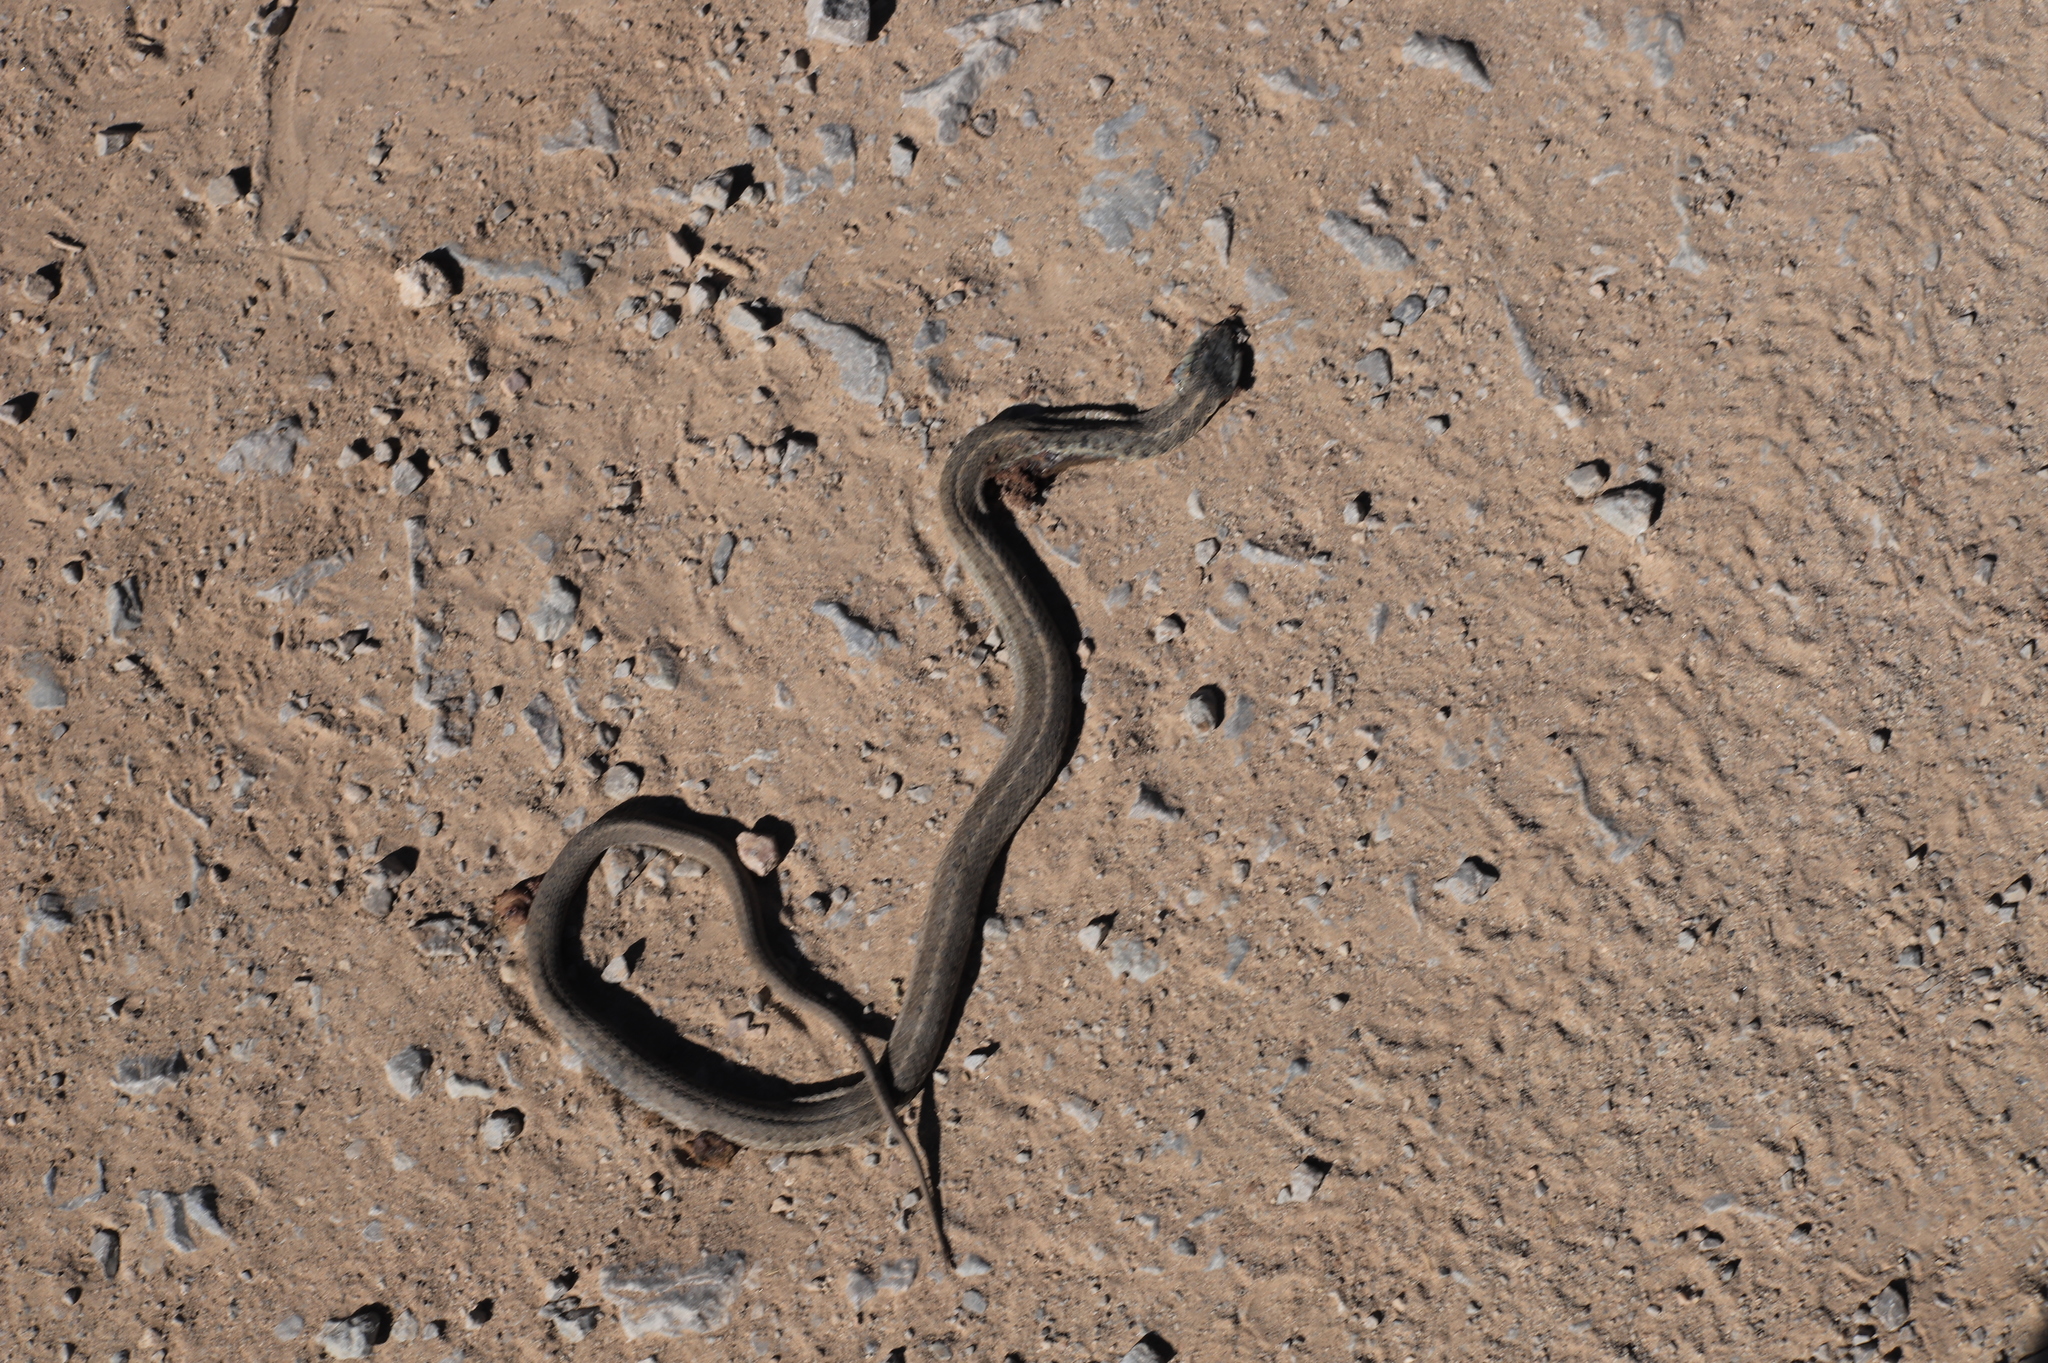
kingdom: Animalia
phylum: Chordata
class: Squamata
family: Colubridae
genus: Thamnophis
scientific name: Thamnophis elegans
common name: Western terrestrial garter snake
